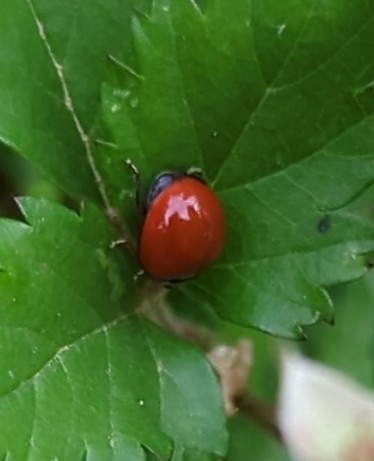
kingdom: Animalia
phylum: Arthropoda
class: Insecta
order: Coleoptera
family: Coccinellidae
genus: Cycloneda
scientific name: Cycloneda sanguinea
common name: Ladybird beetle
